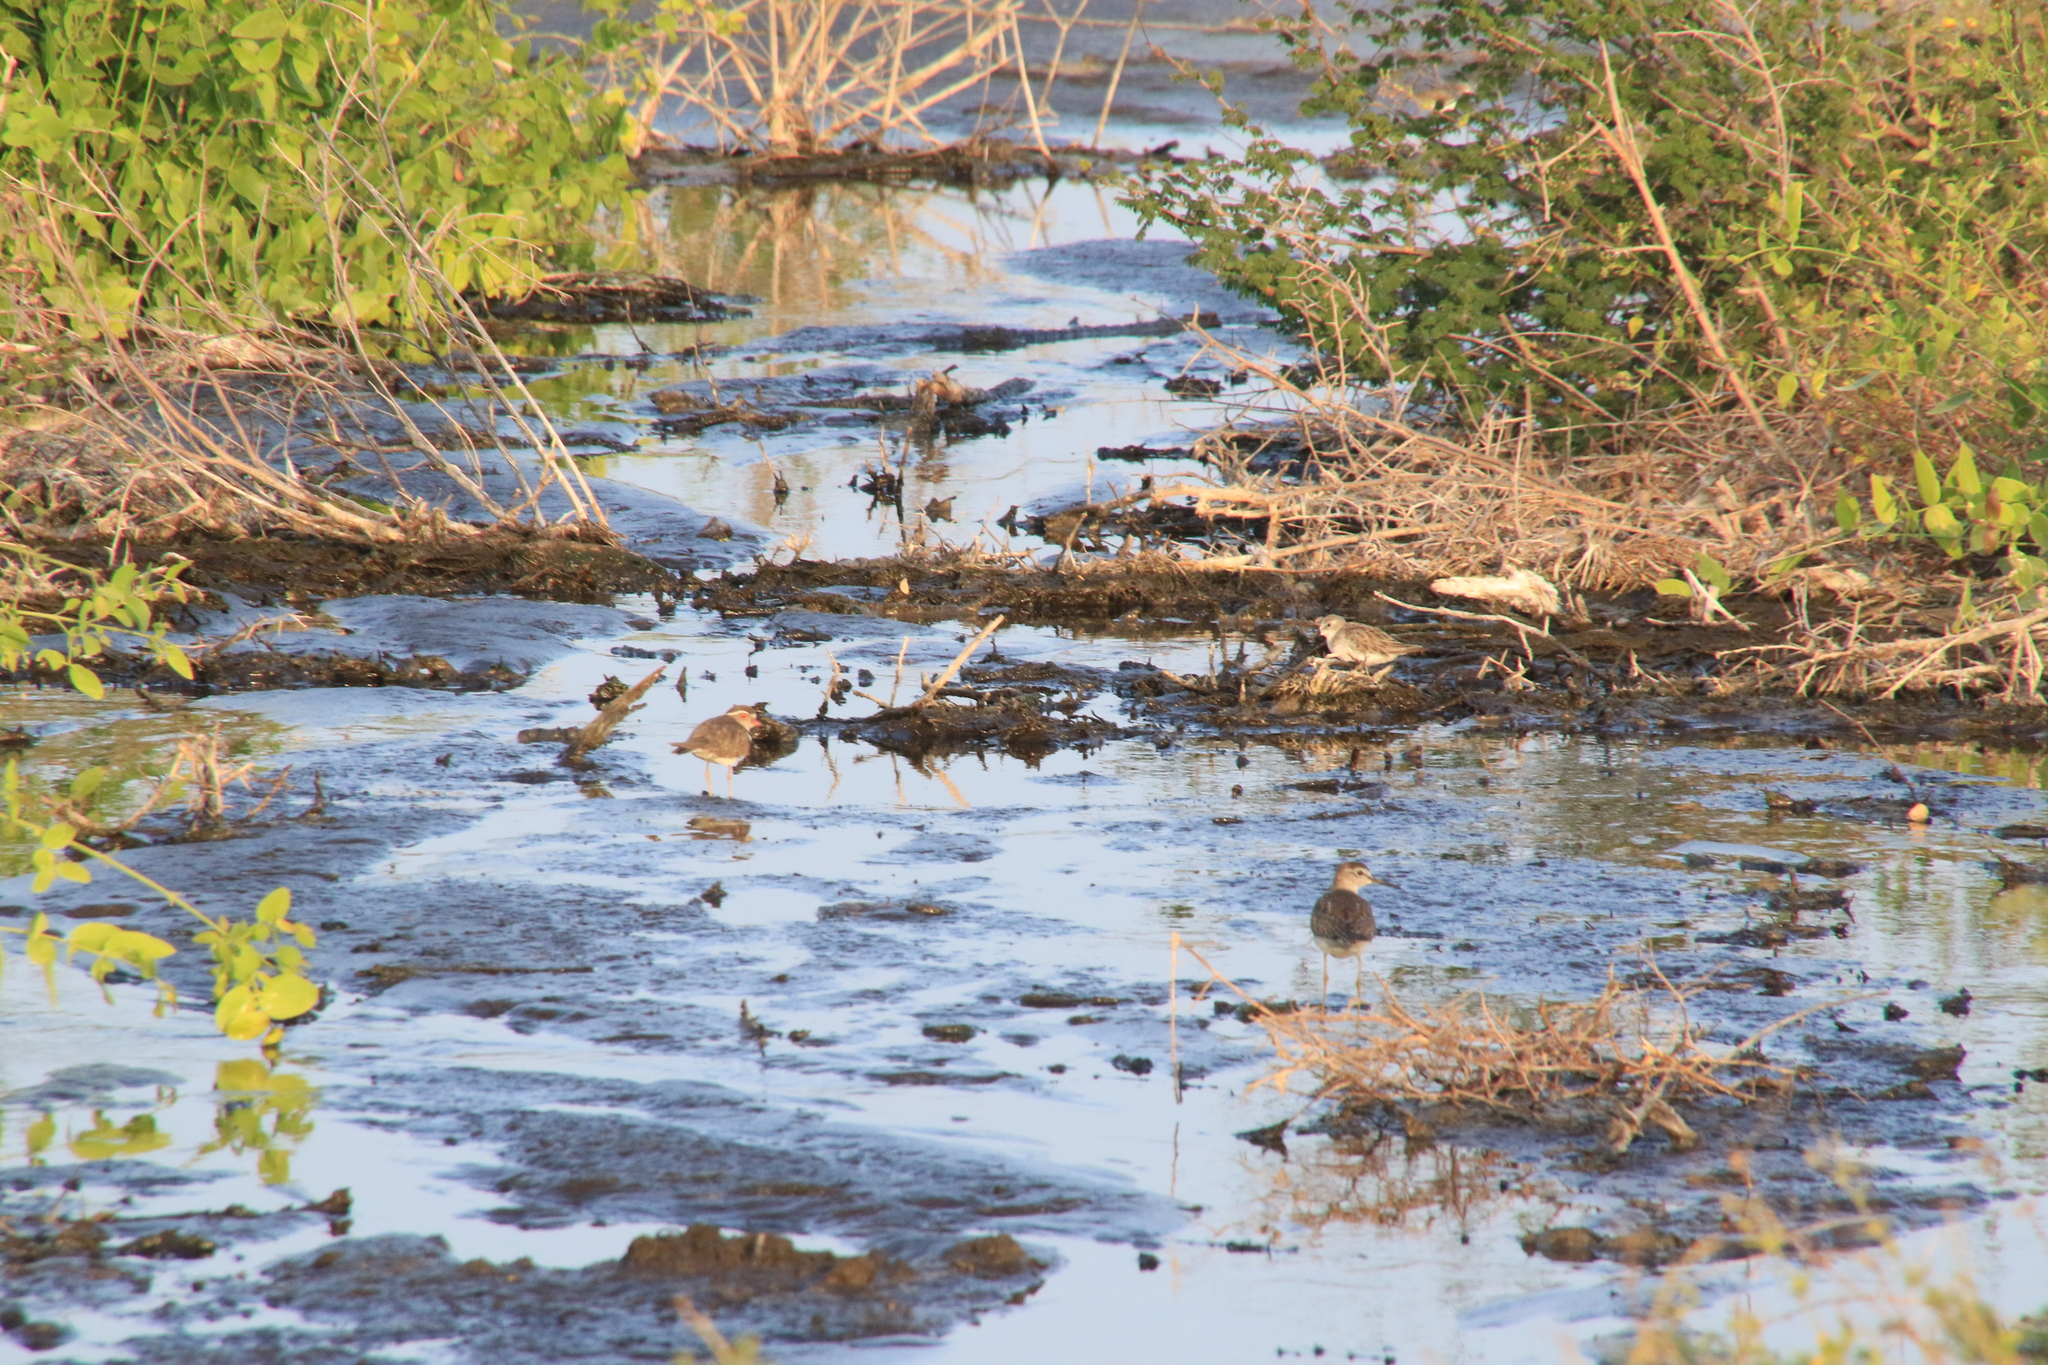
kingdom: Animalia
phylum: Chordata
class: Aves
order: Charadriiformes
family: Charadriidae
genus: Charadrius
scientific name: Charadrius tricollaris
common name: Three-banded plover
